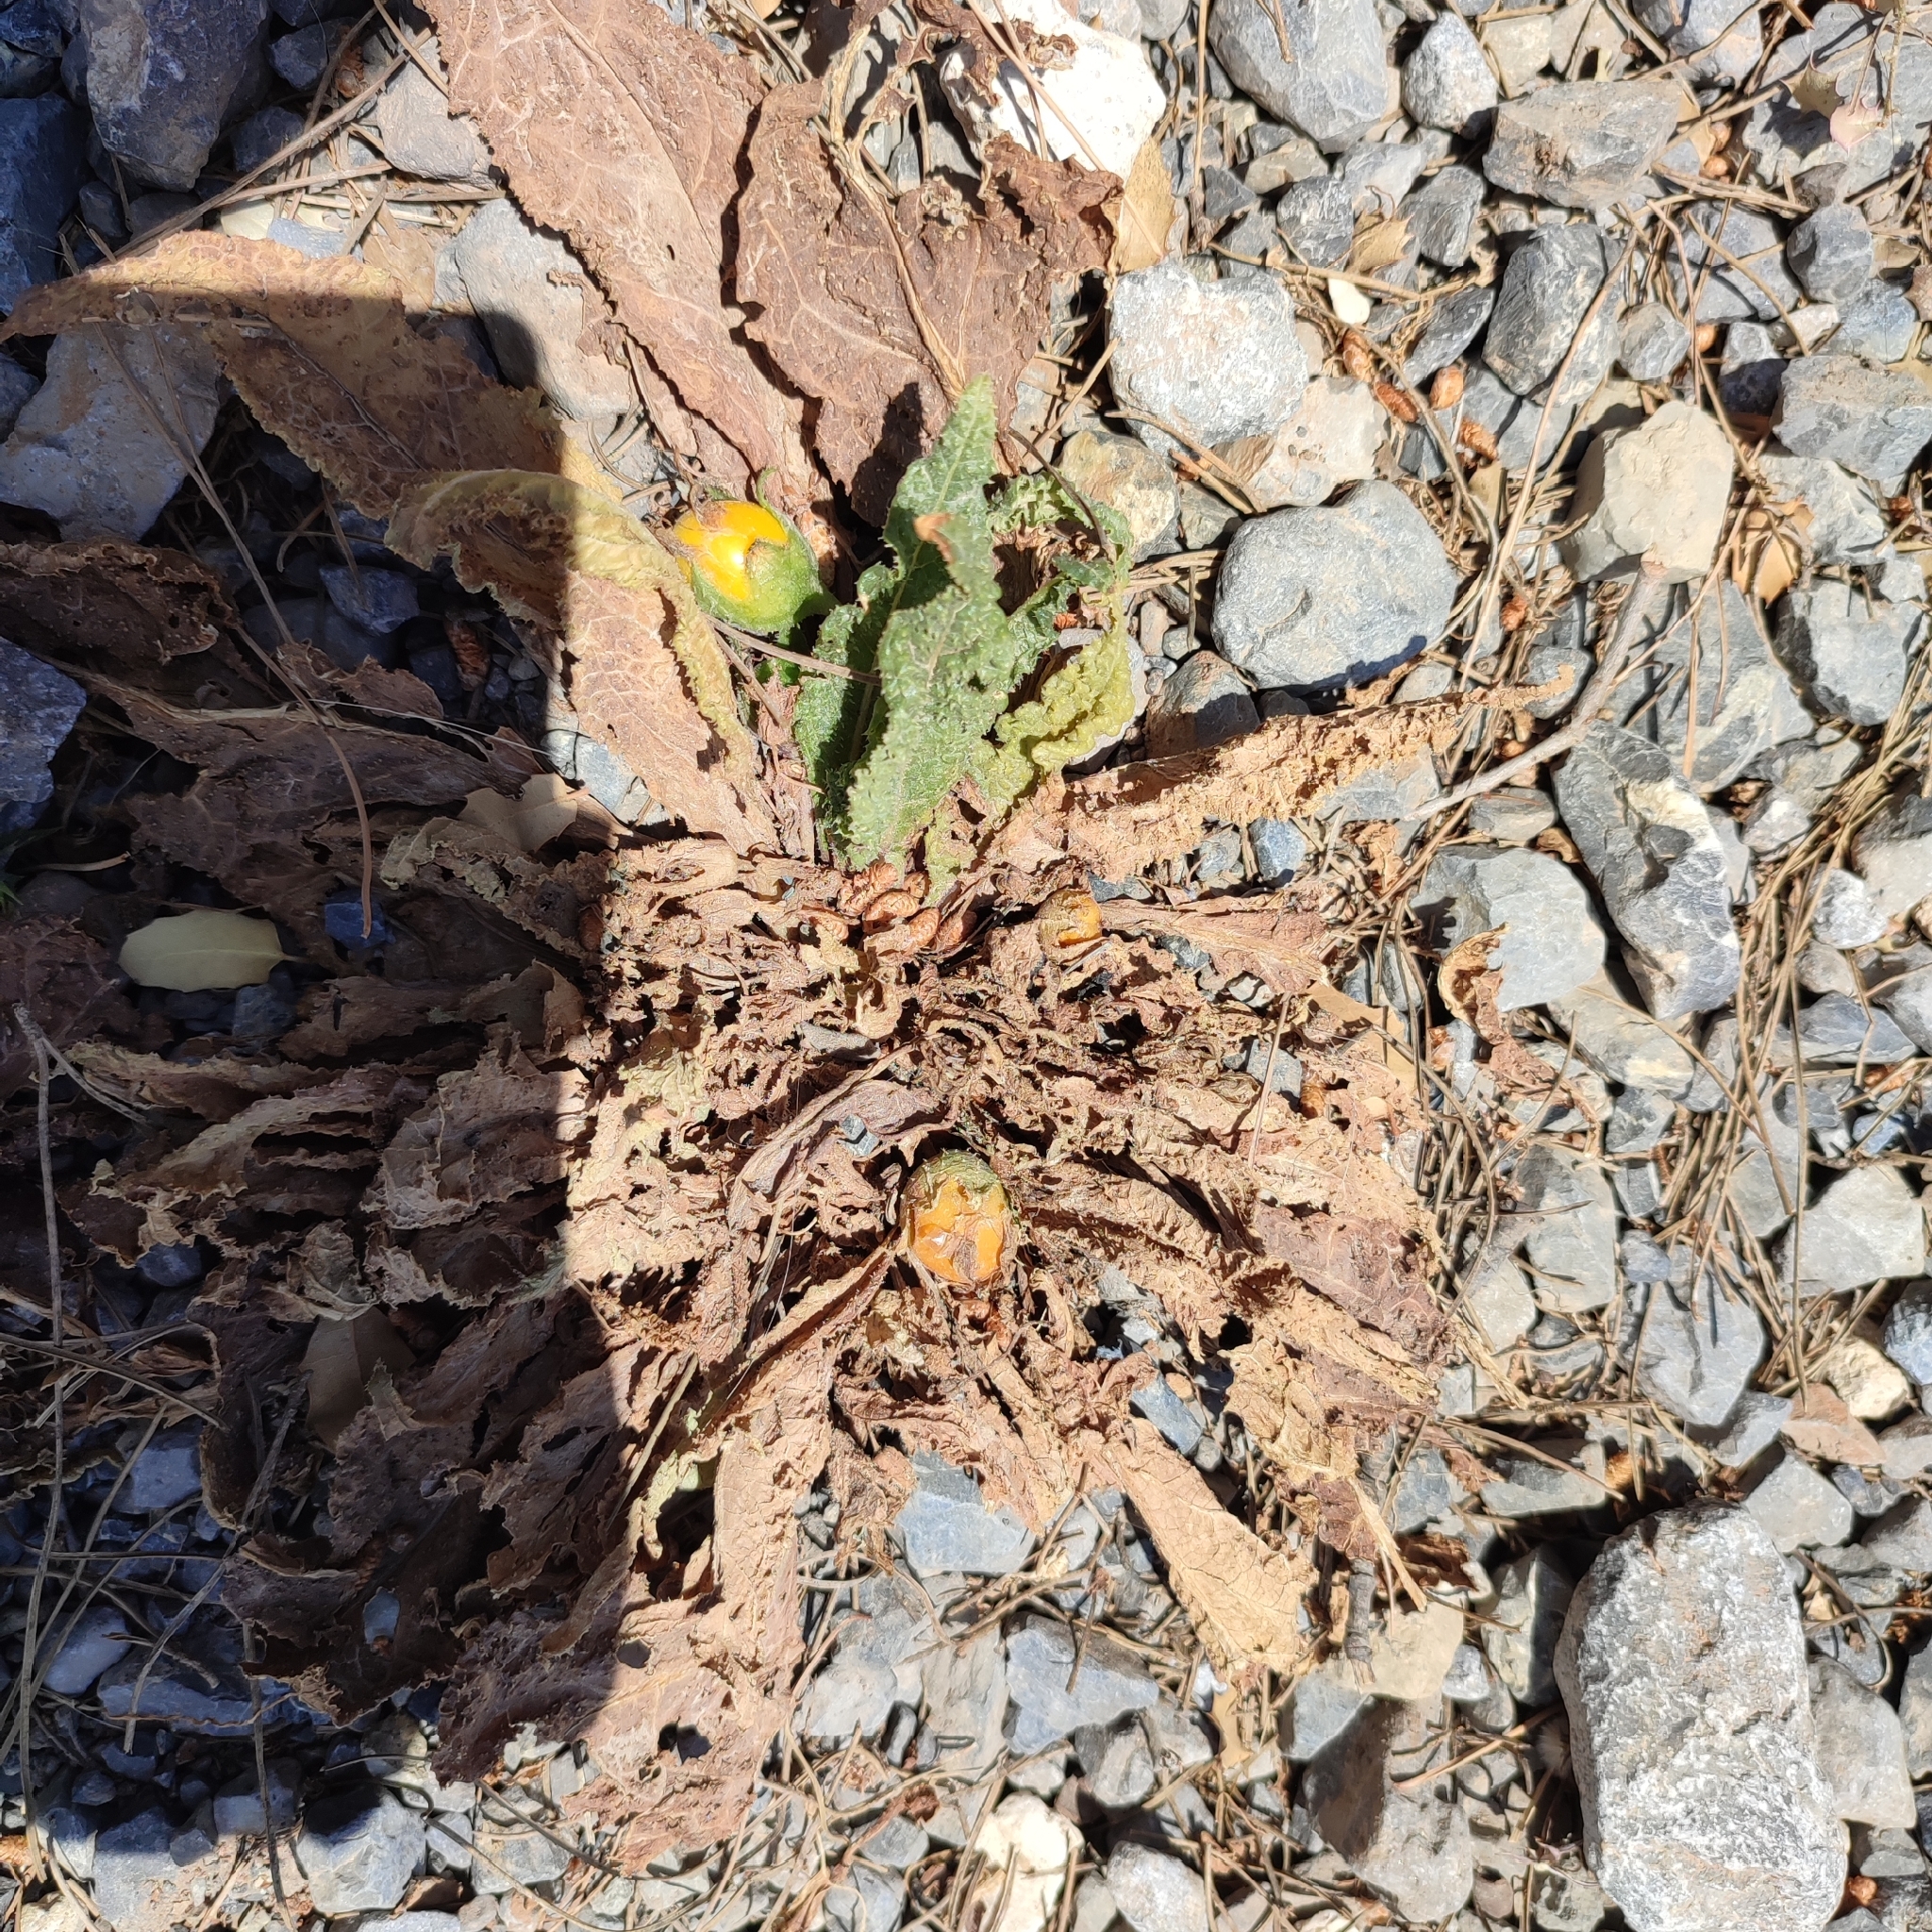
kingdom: Plantae
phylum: Tracheophyta
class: Magnoliopsida
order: Solanales
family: Solanaceae
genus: Mandragora
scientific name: Mandragora officinarum
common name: Mandrake
